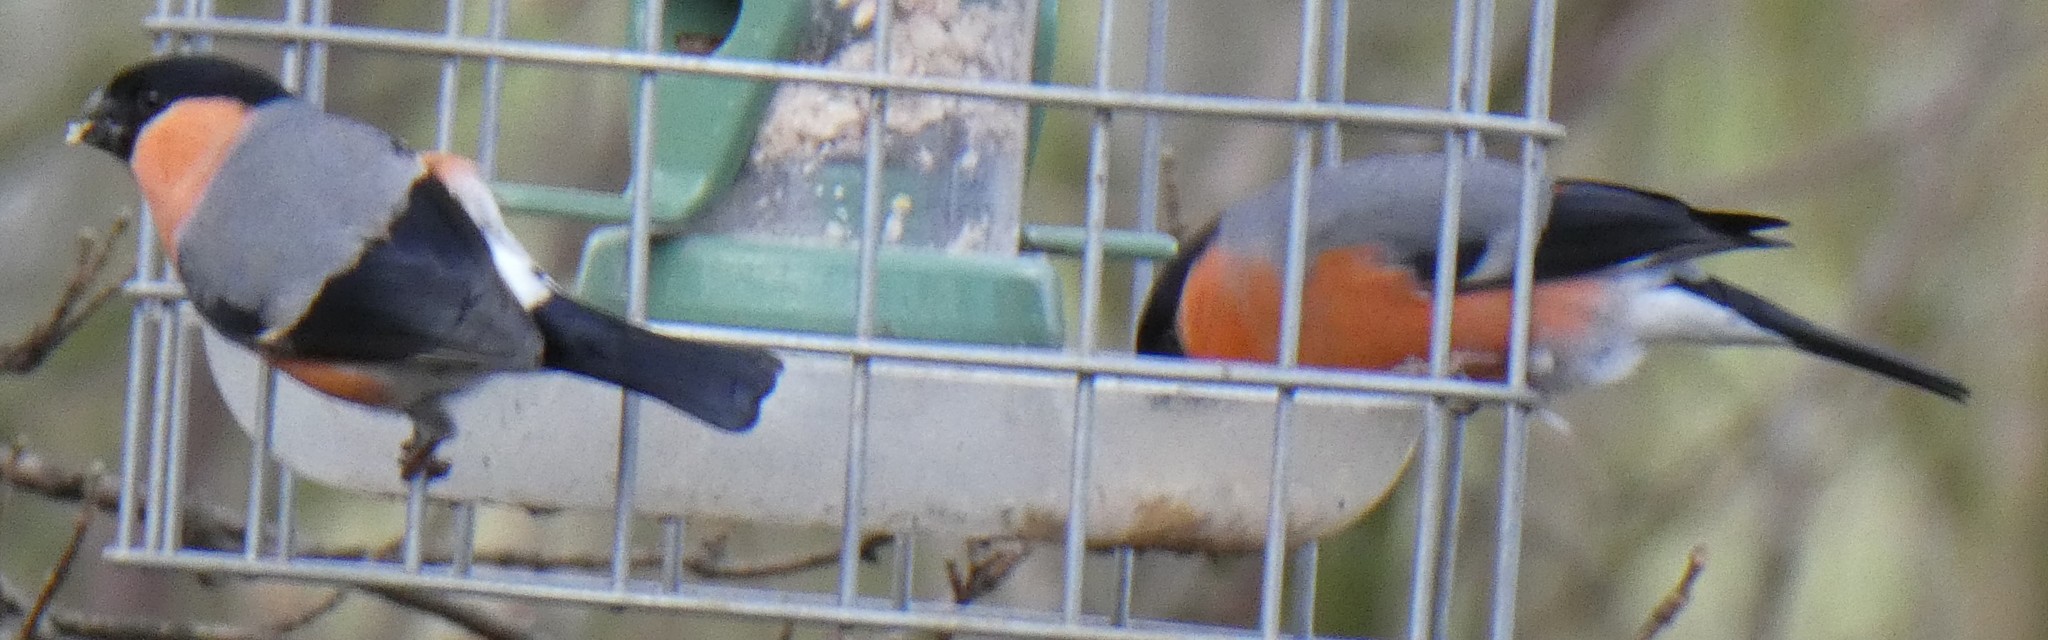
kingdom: Animalia
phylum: Chordata
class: Aves
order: Passeriformes
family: Fringillidae
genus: Pyrrhula
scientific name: Pyrrhula pyrrhula
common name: Eurasian bullfinch
